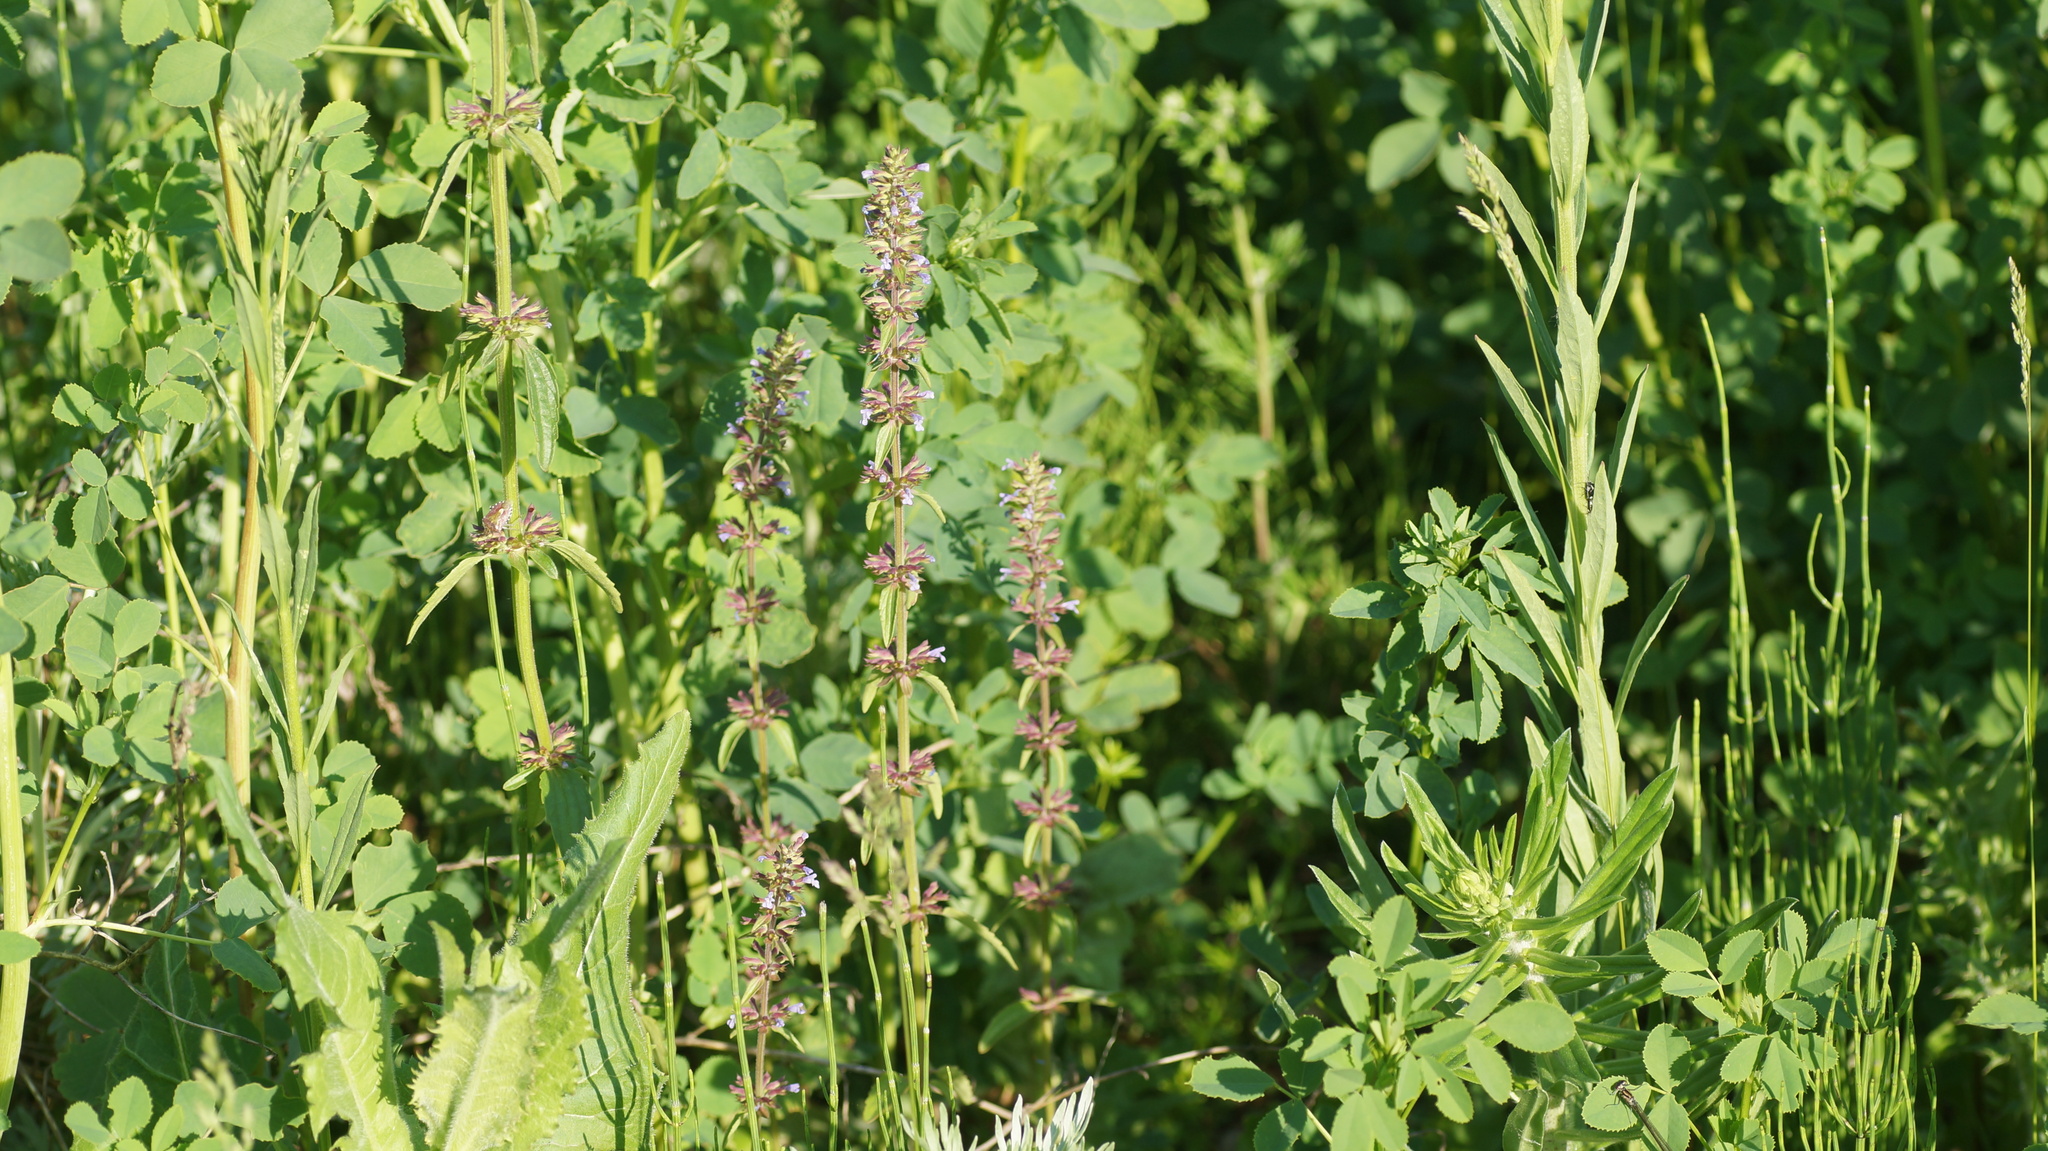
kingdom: Plantae
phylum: Tracheophyta
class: Magnoliopsida
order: Lamiales
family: Lamiaceae
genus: Dracocephalum
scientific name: Dracocephalum thymiflorum
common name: Thymeleaf dragonhead
